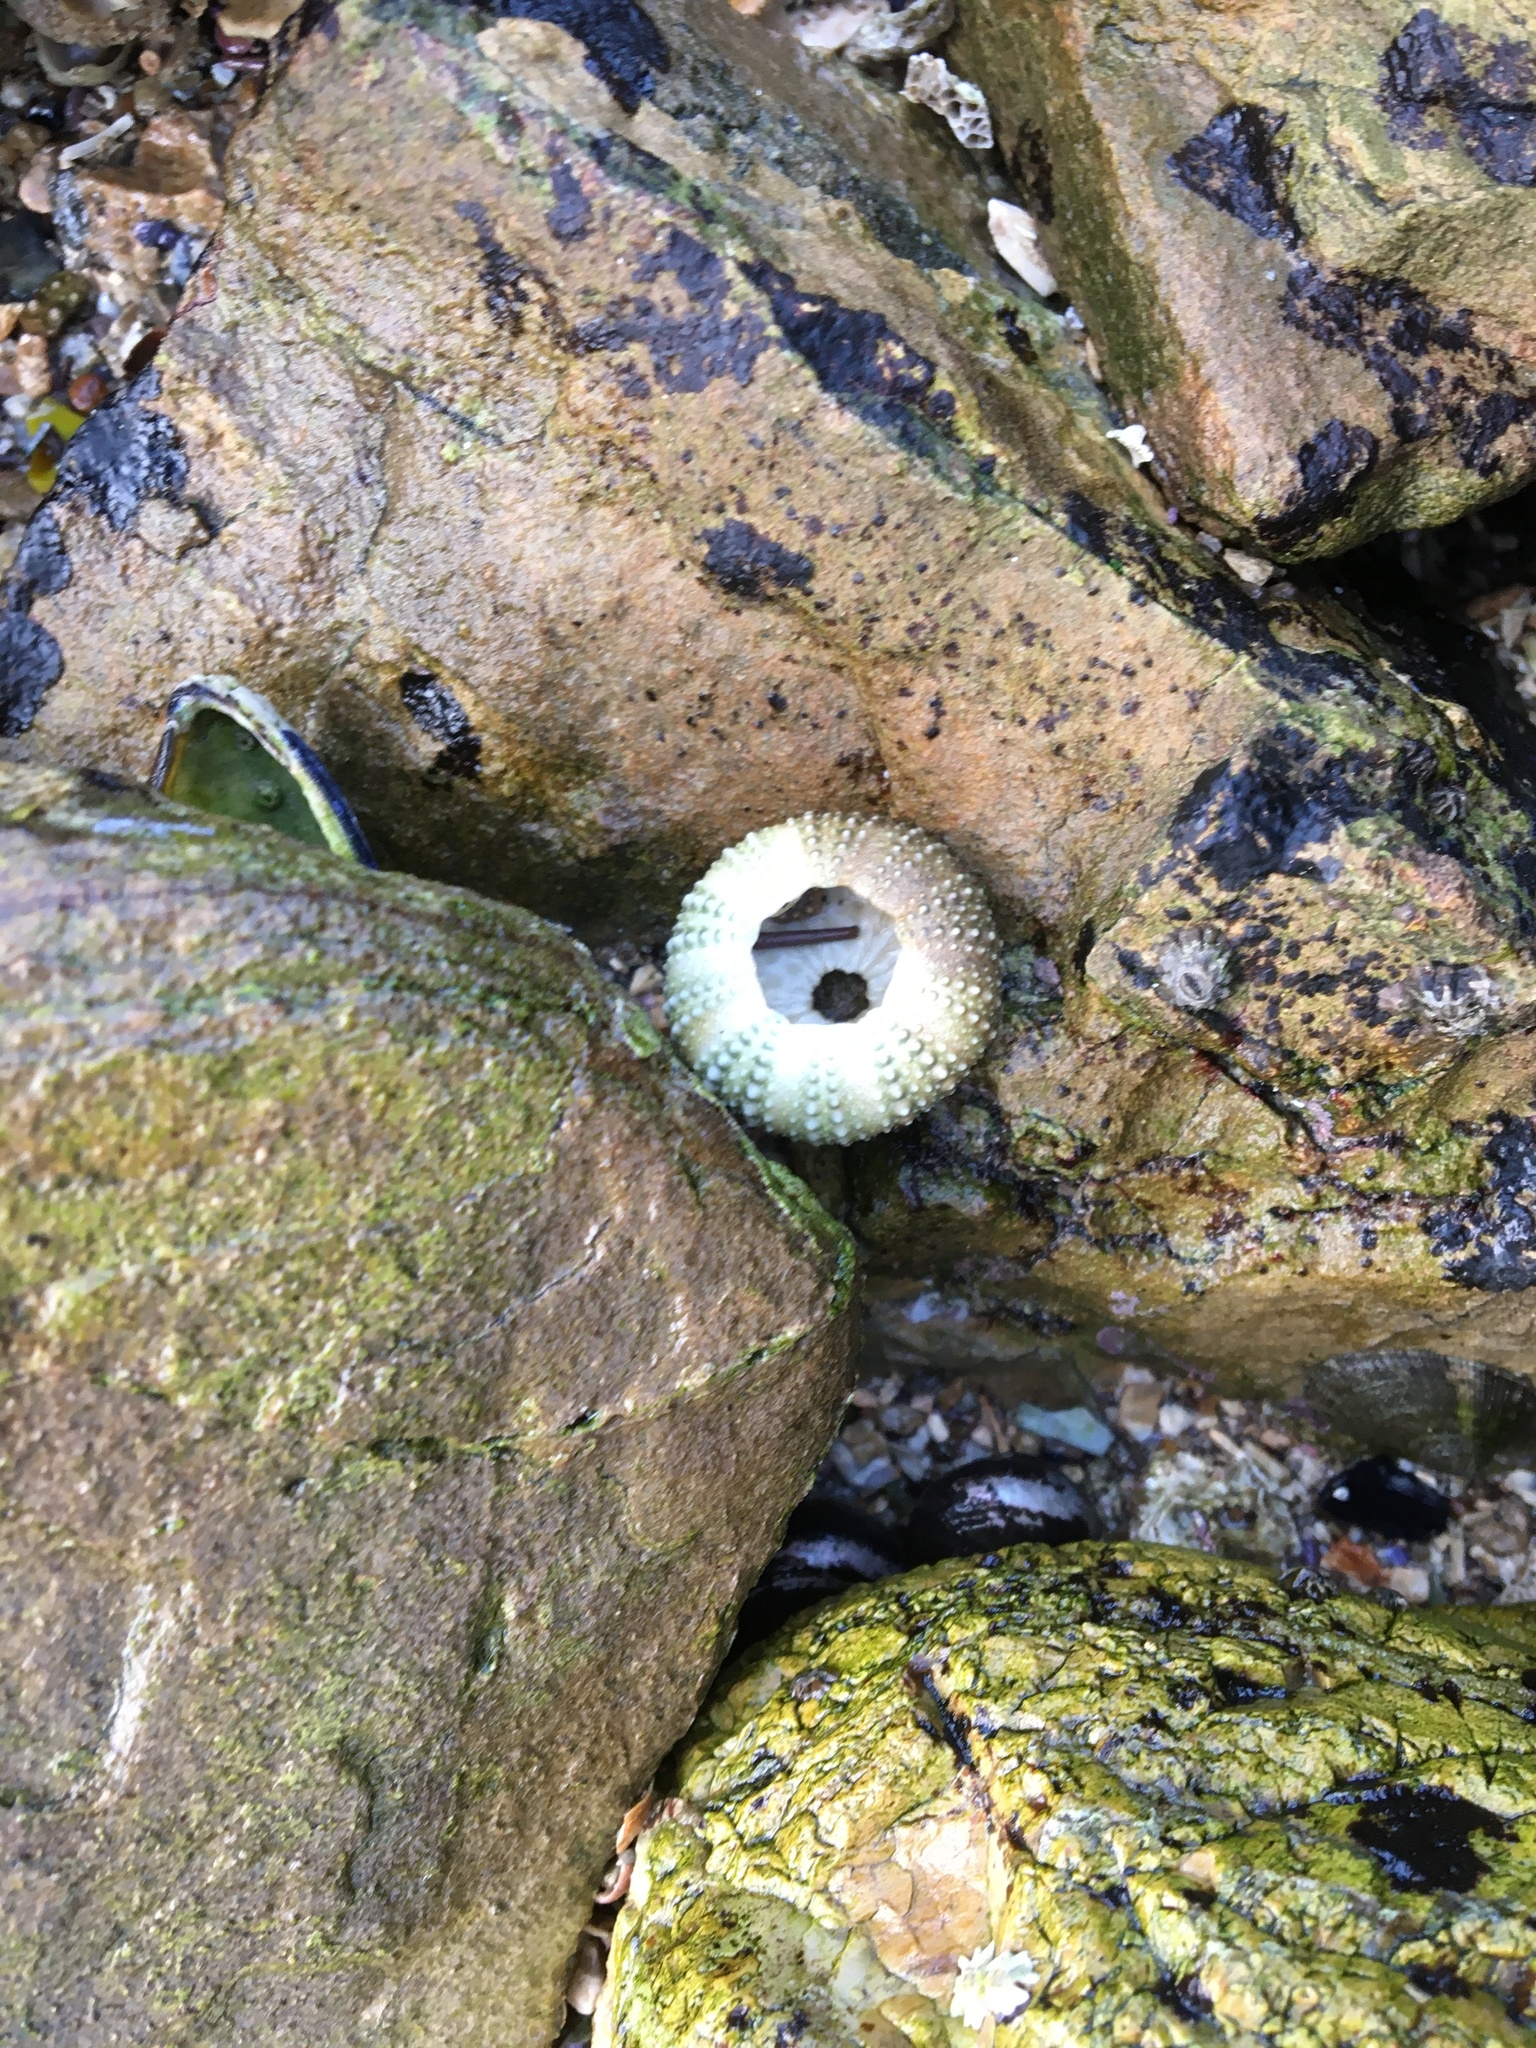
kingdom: Animalia
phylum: Echinodermata
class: Echinoidea
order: Camarodonta
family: Strongylocentrotidae
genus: Strongylocentrotus
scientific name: Strongylocentrotus purpuratus
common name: Purple sea urchin
